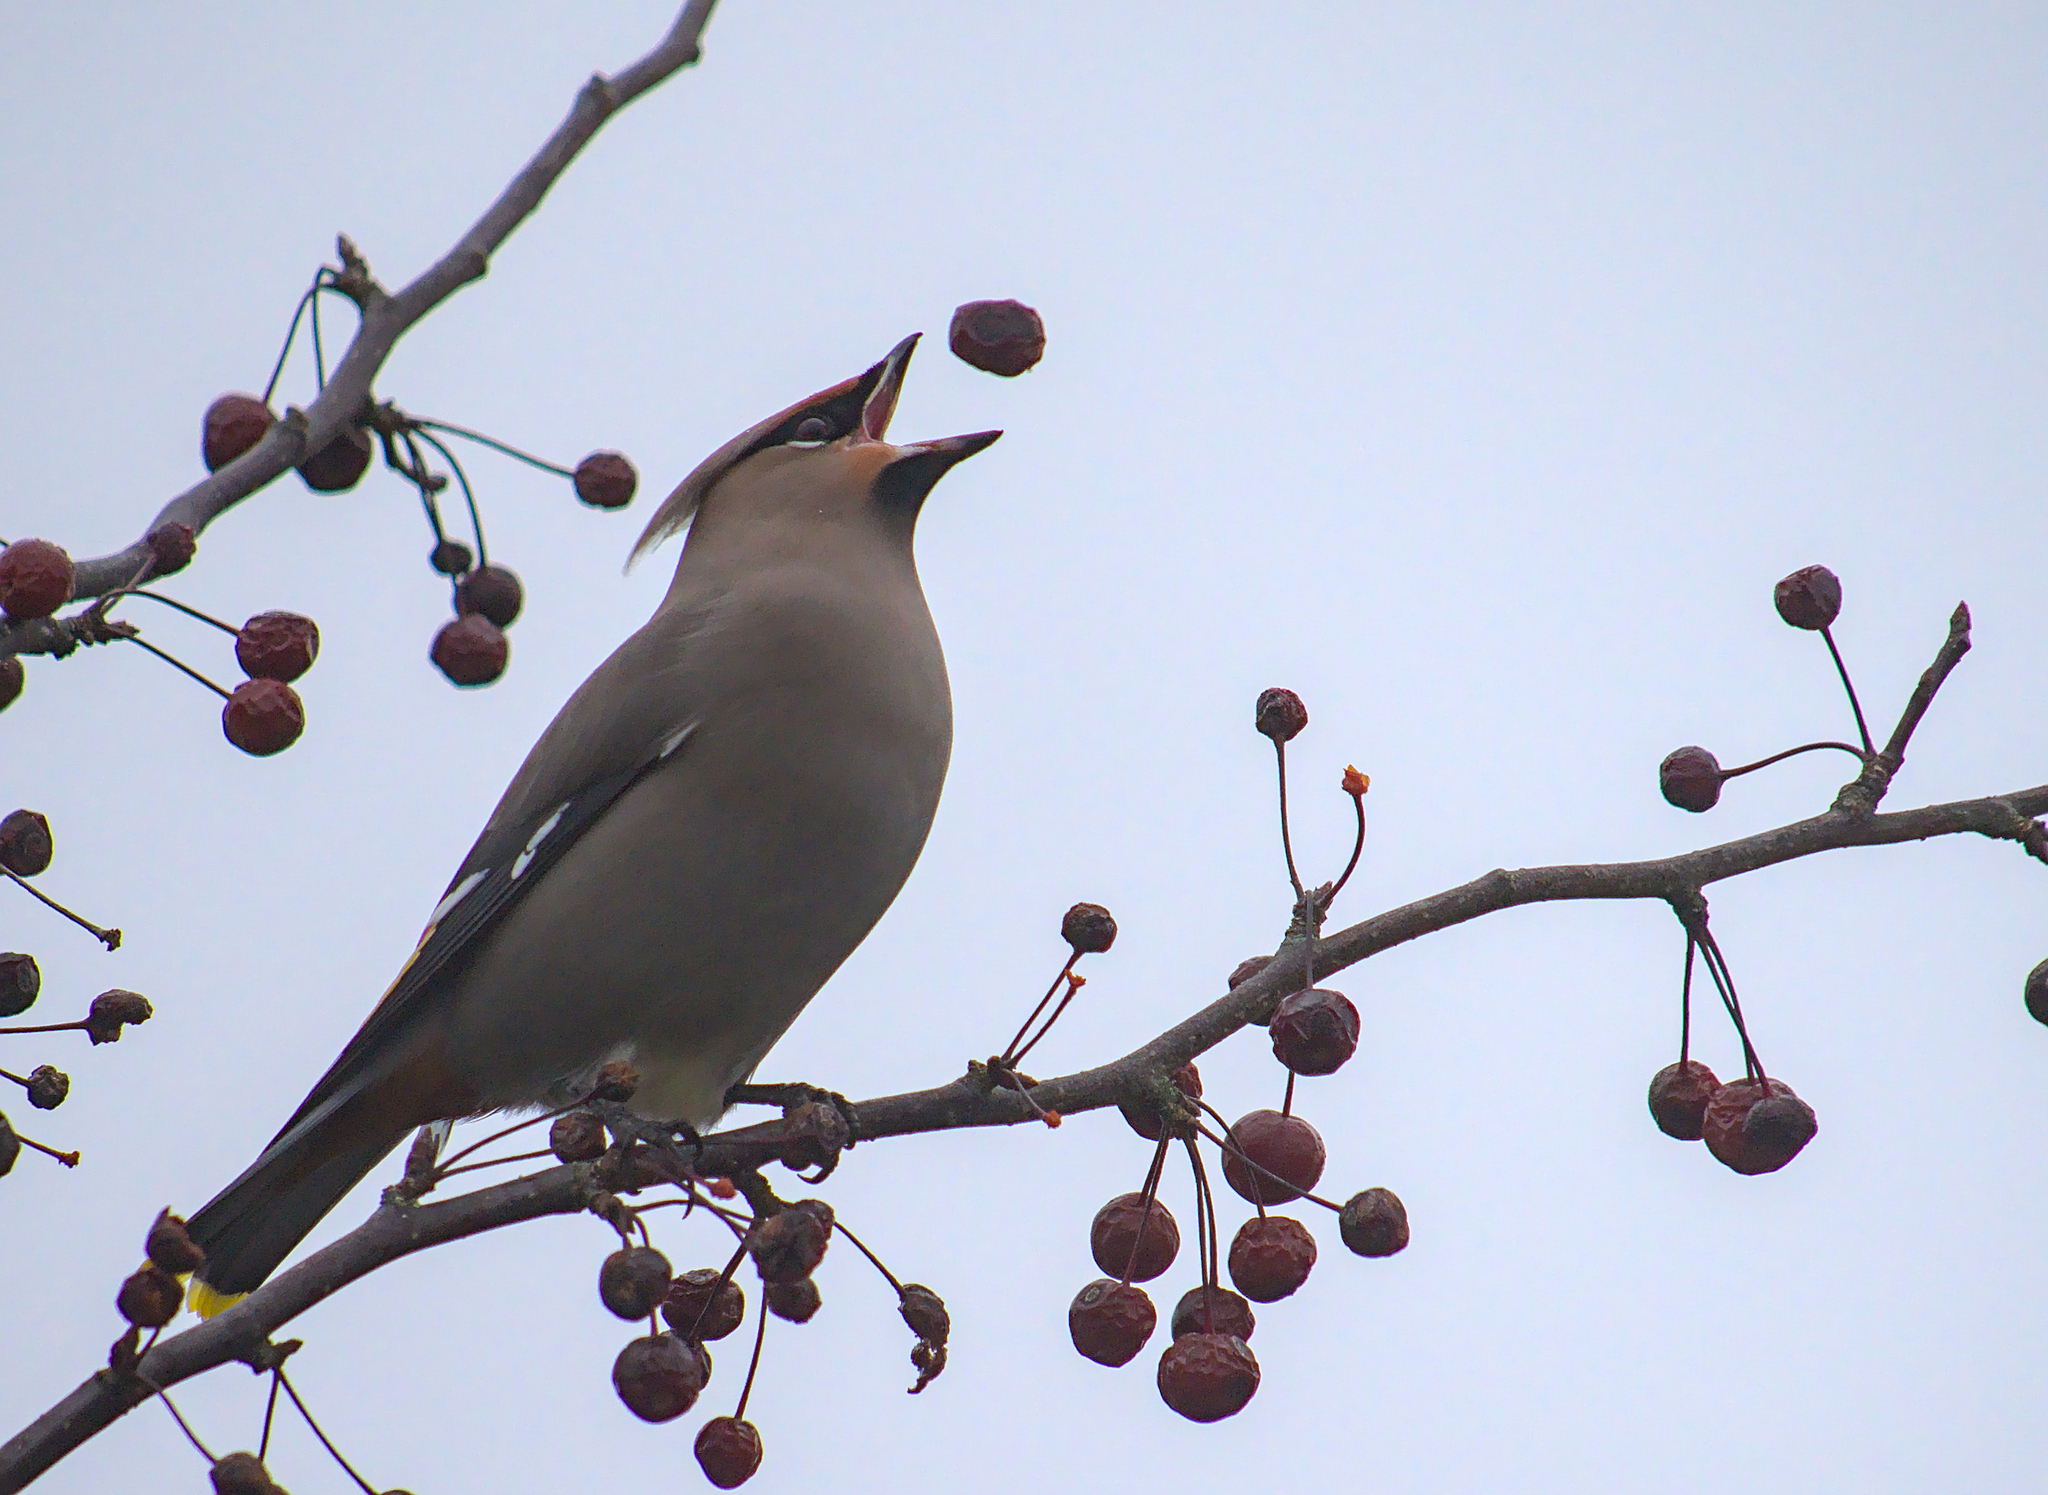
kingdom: Animalia
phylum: Chordata
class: Aves
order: Passeriformes
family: Bombycillidae
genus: Bombycilla
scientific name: Bombycilla garrulus
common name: Bohemian waxwing
